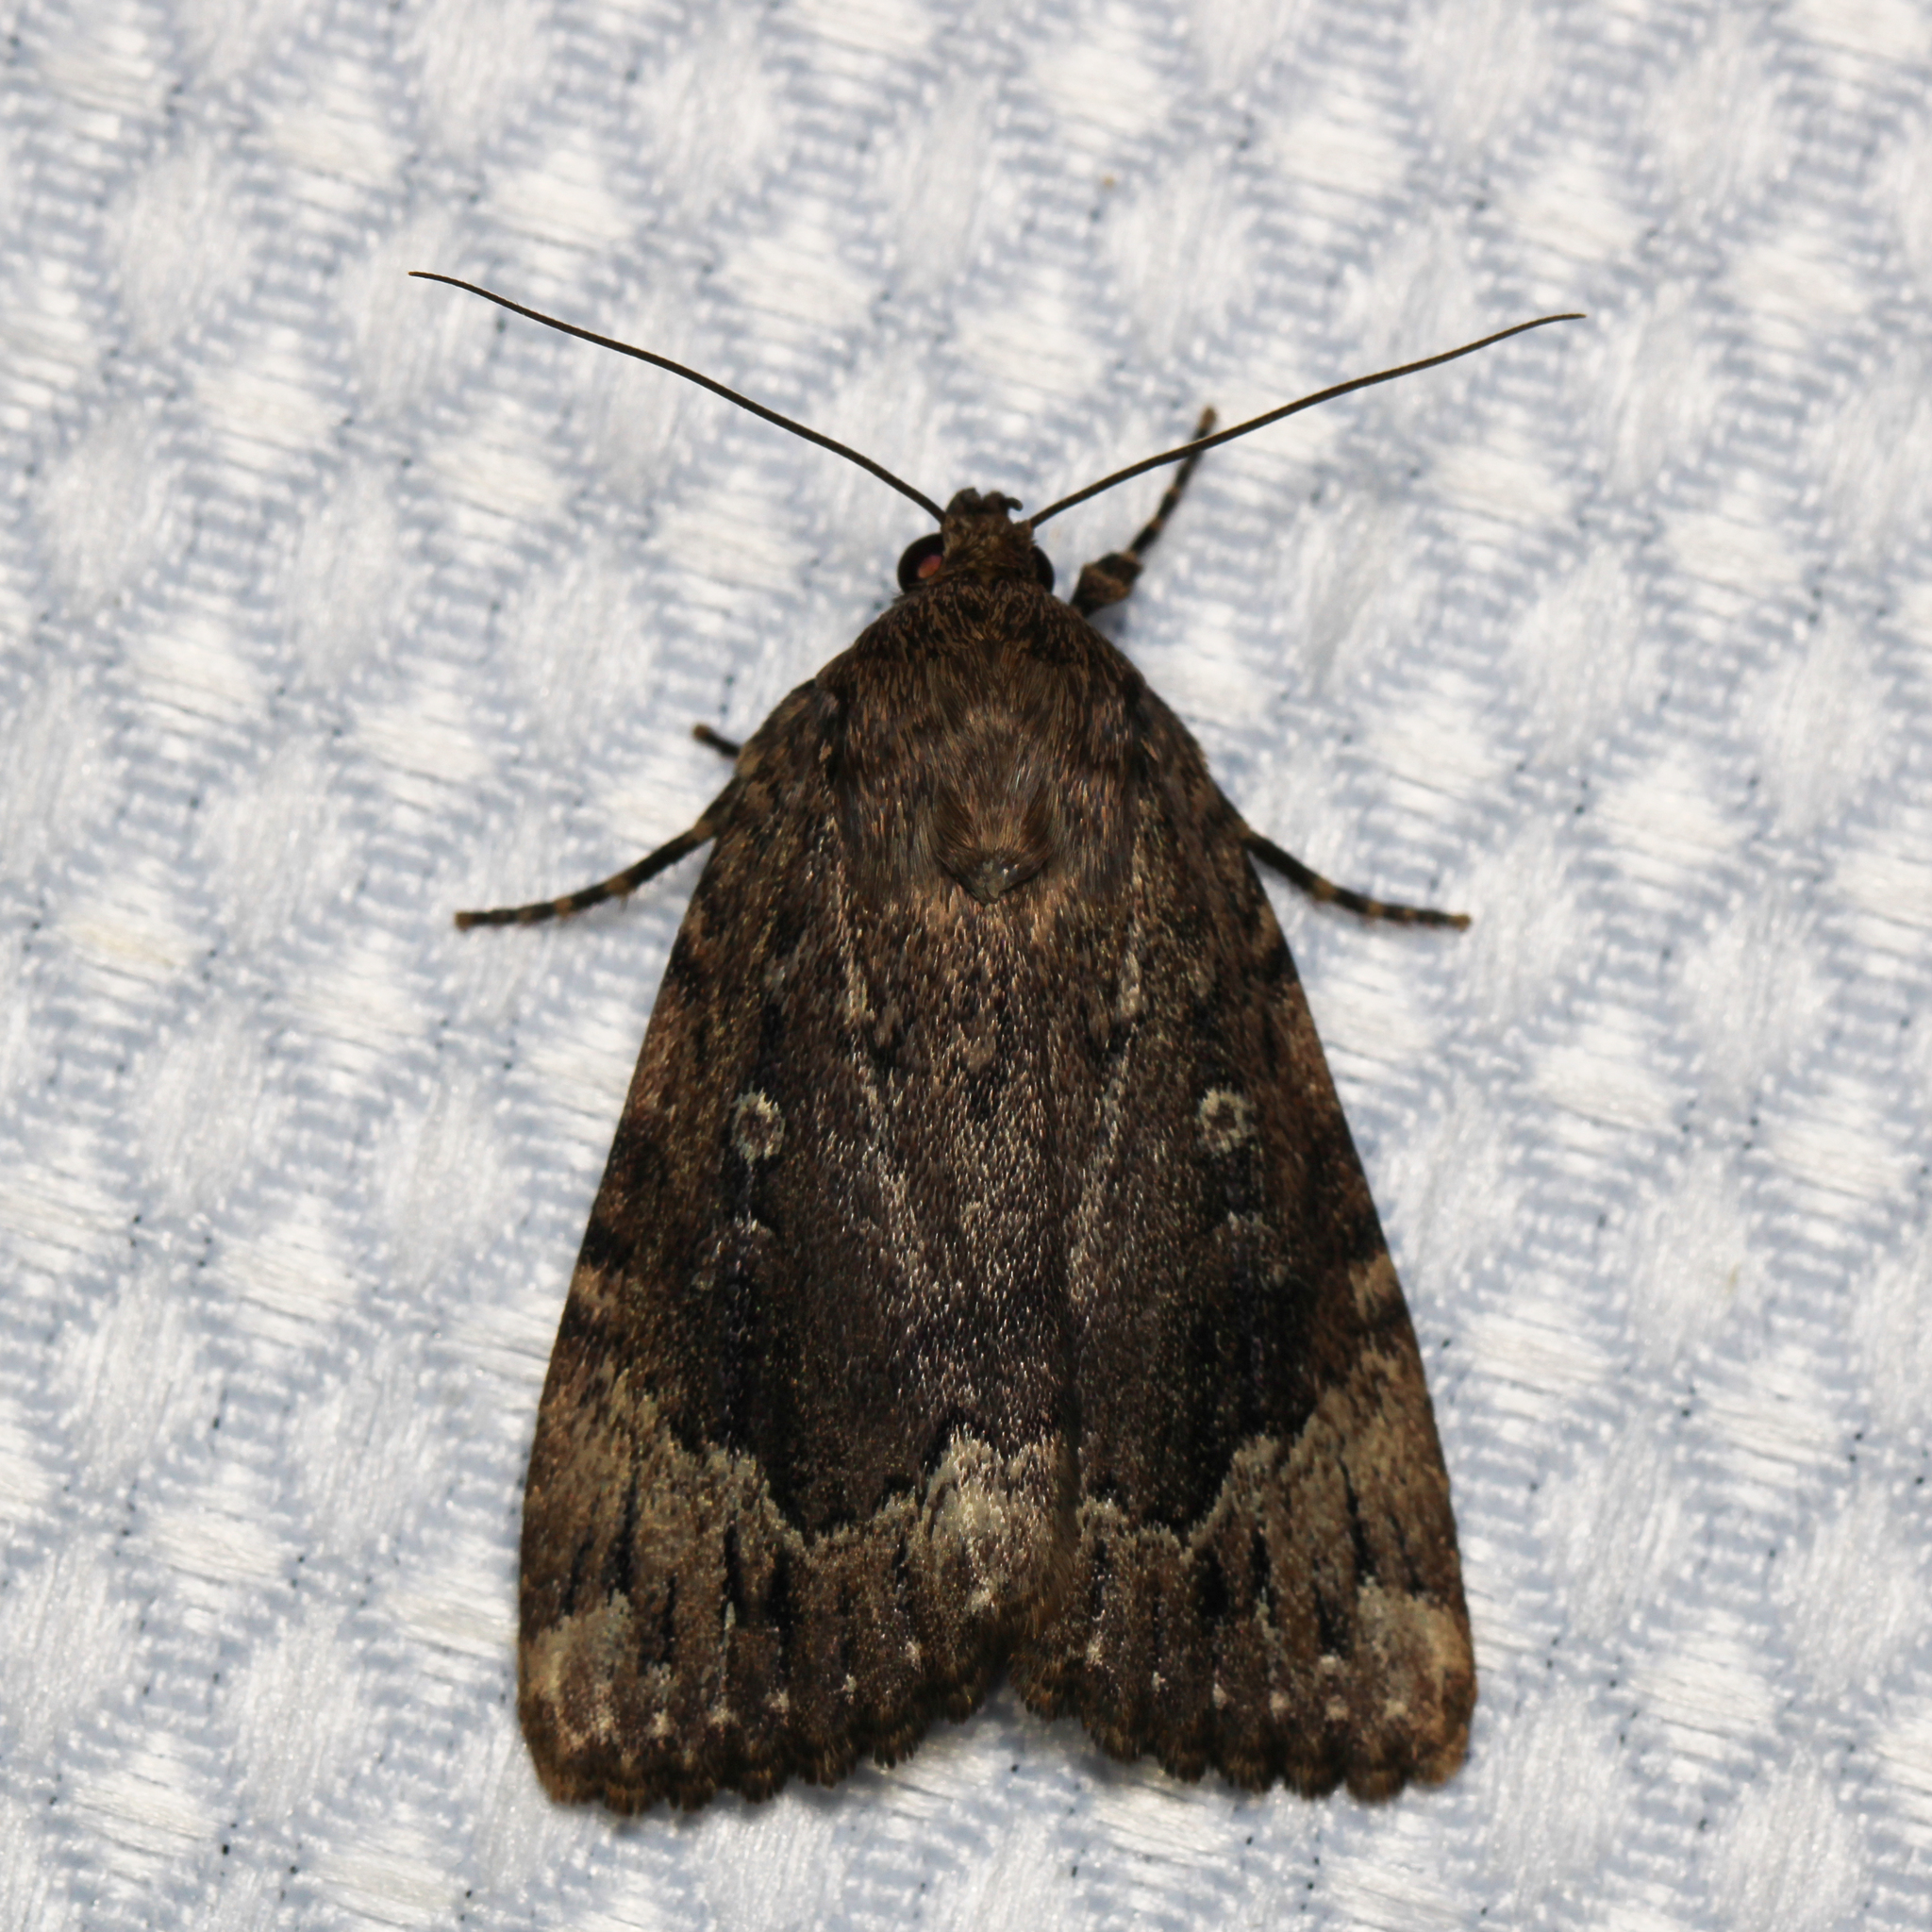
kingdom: Animalia
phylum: Arthropoda
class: Insecta
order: Lepidoptera
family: Noctuidae
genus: Amphipyra
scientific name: Amphipyra pyramidoides
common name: American copper underwing
